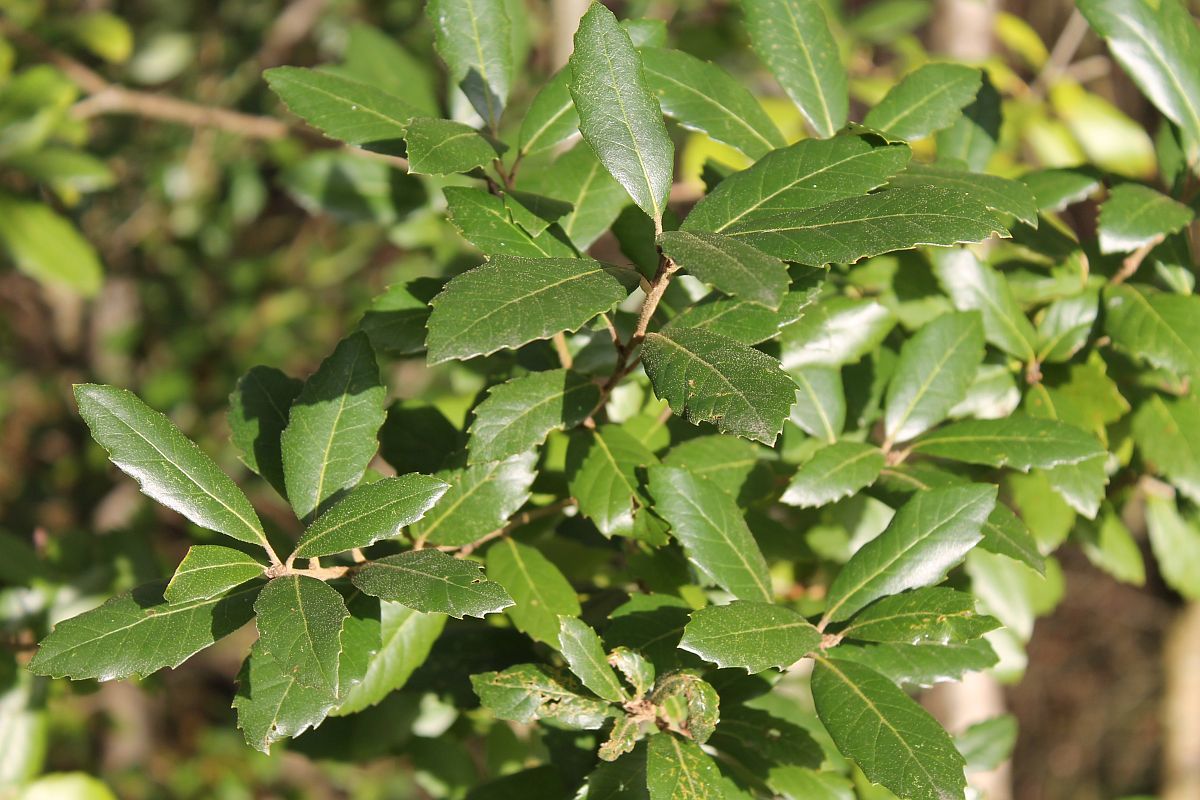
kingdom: Plantae
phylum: Tracheophyta
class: Magnoliopsida
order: Fagales
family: Fagaceae
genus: Quercus
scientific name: Quercus ilex
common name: Evergreen oak
